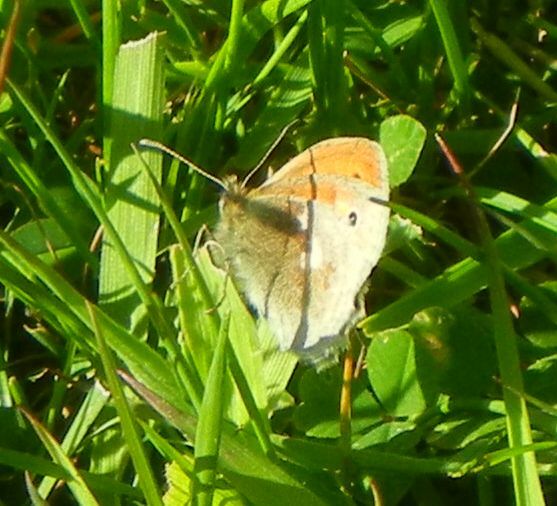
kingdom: Animalia
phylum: Arthropoda
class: Insecta
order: Lepidoptera
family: Nymphalidae
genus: Coenonympha
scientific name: Coenonympha pamphilus
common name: Small heath
